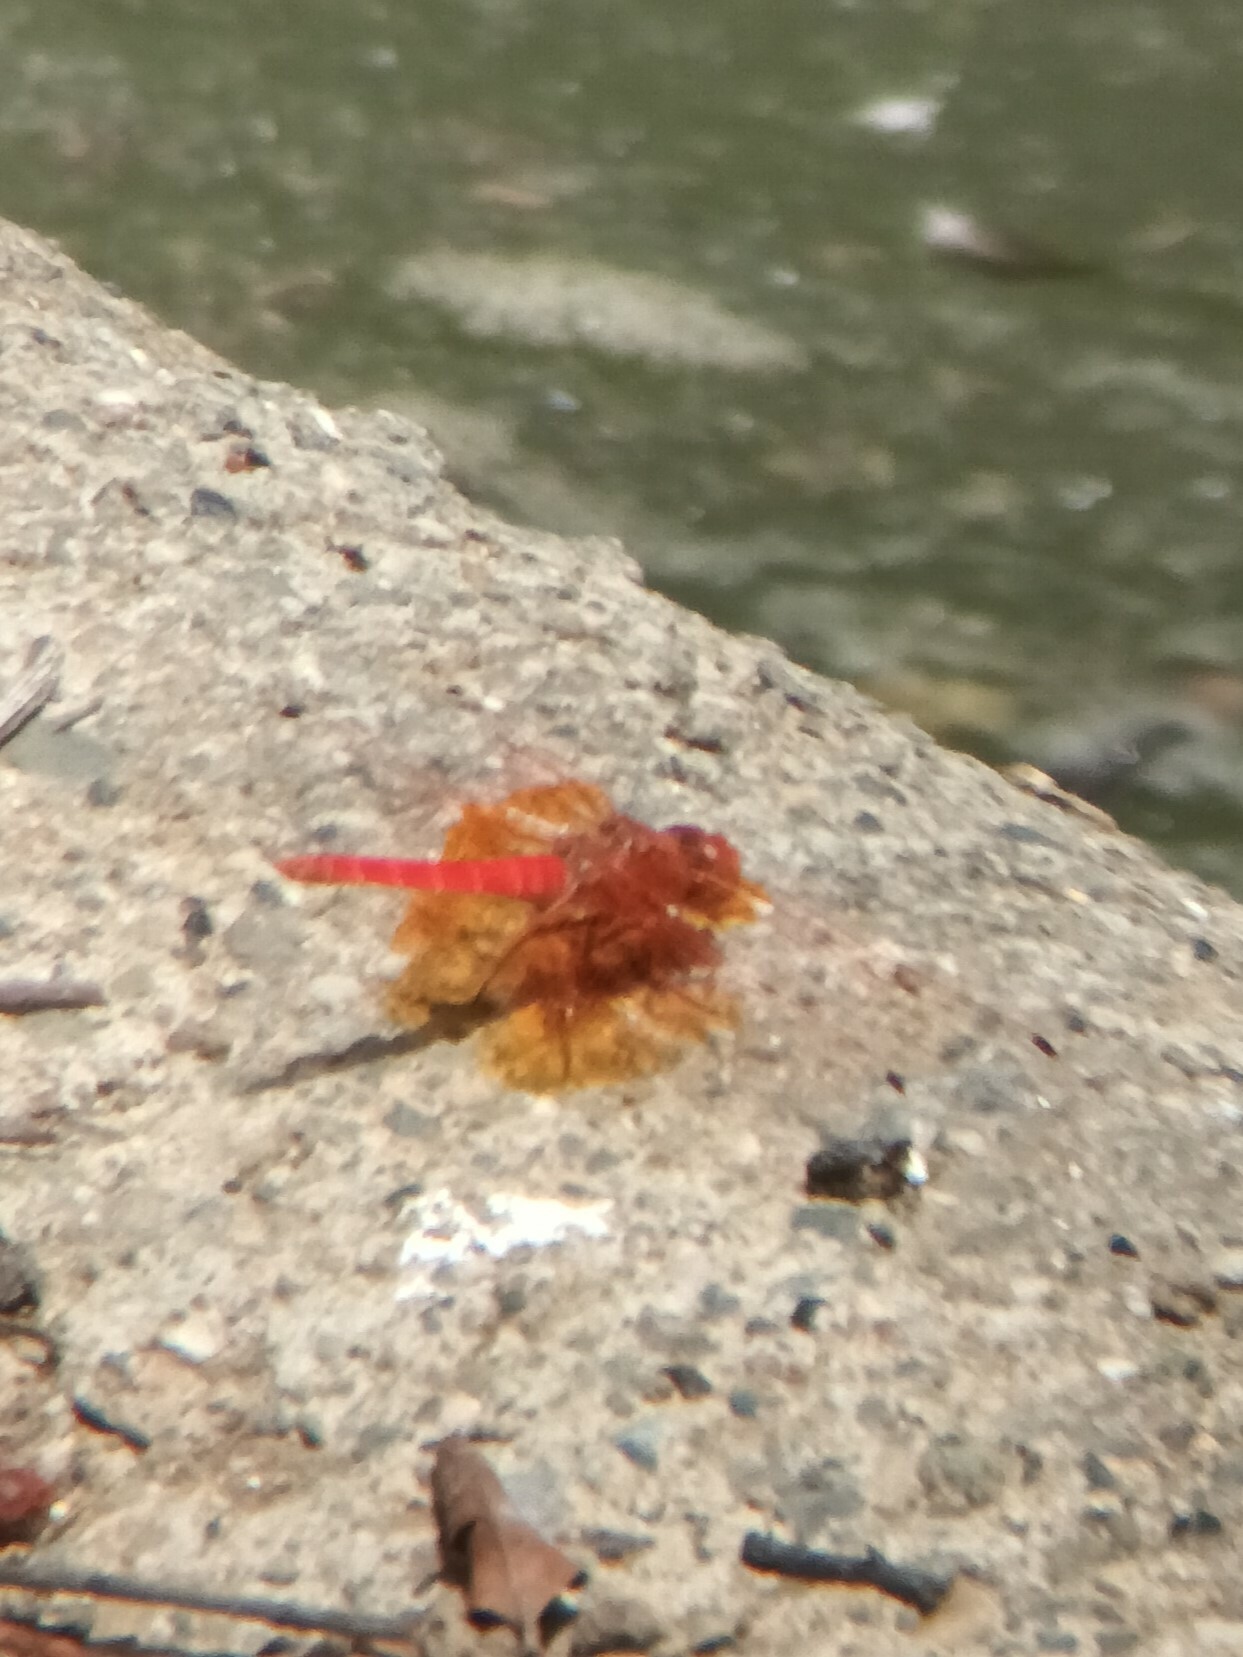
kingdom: Animalia
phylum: Arthropoda
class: Insecta
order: Odonata
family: Libellulidae
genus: Trithemis
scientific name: Trithemis kirbyi
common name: Kirby's dropwing
